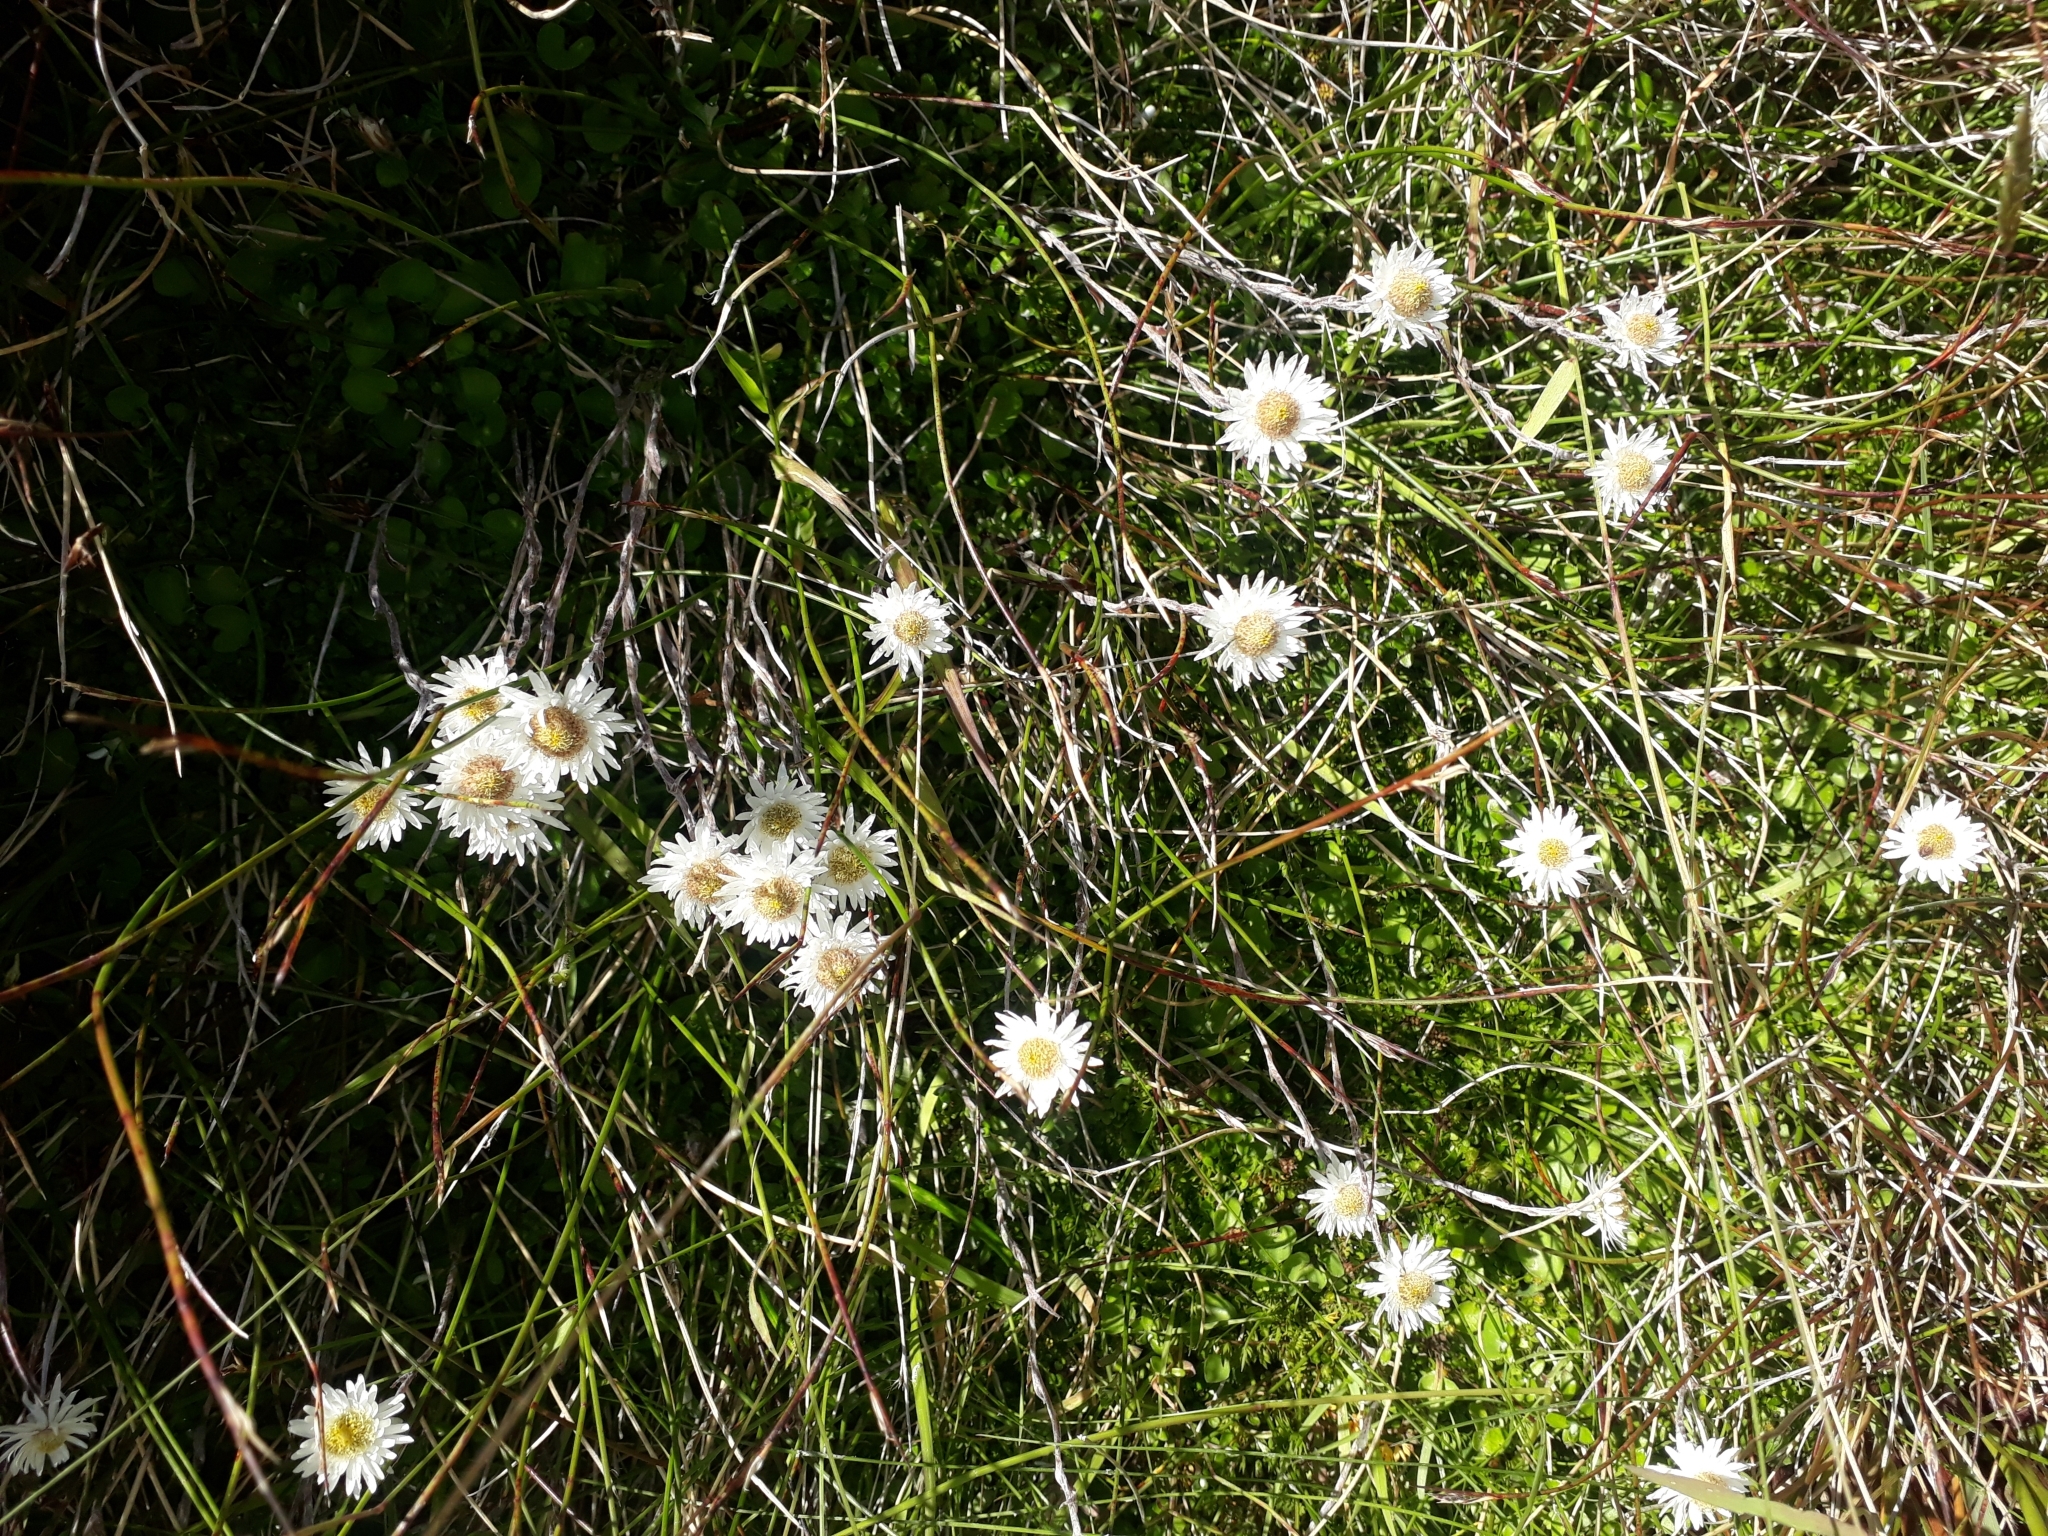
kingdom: Plantae
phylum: Tracheophyta
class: Magnoliopsida
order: Asterales
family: Asteraceae
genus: Anaphalioides
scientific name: Anaphalioides bellidioides
